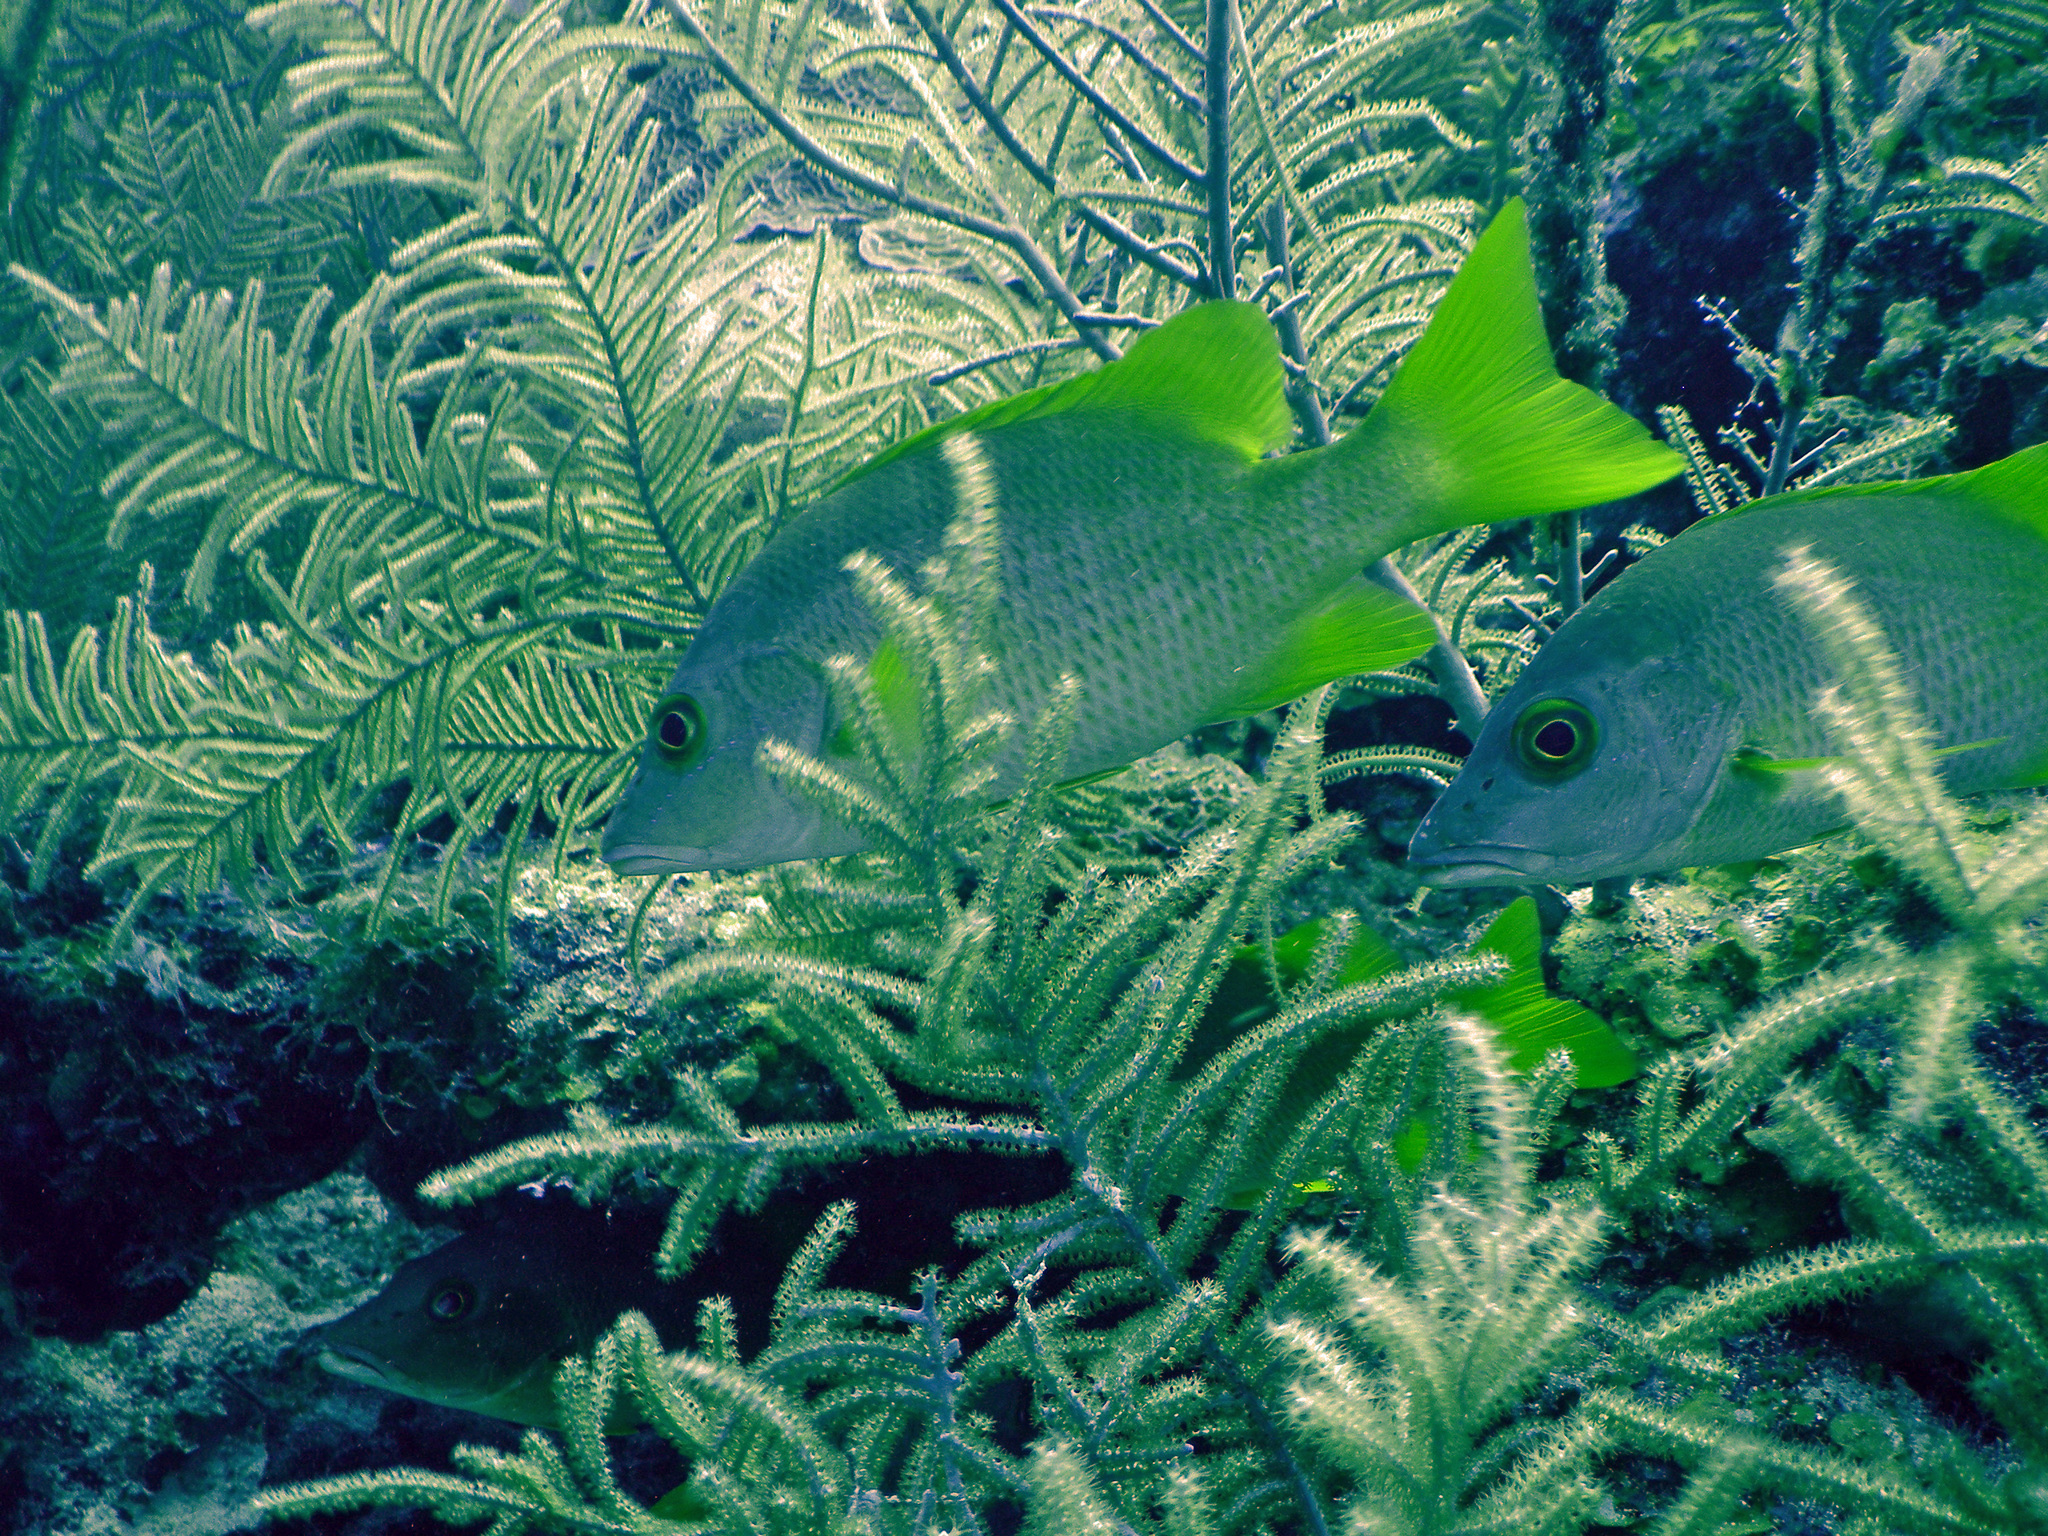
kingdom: Animalia
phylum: Chordata
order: Perciformes
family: Lutjanidae
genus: Lutjanus
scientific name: Lutjanus apodus
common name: Schoolmaster
